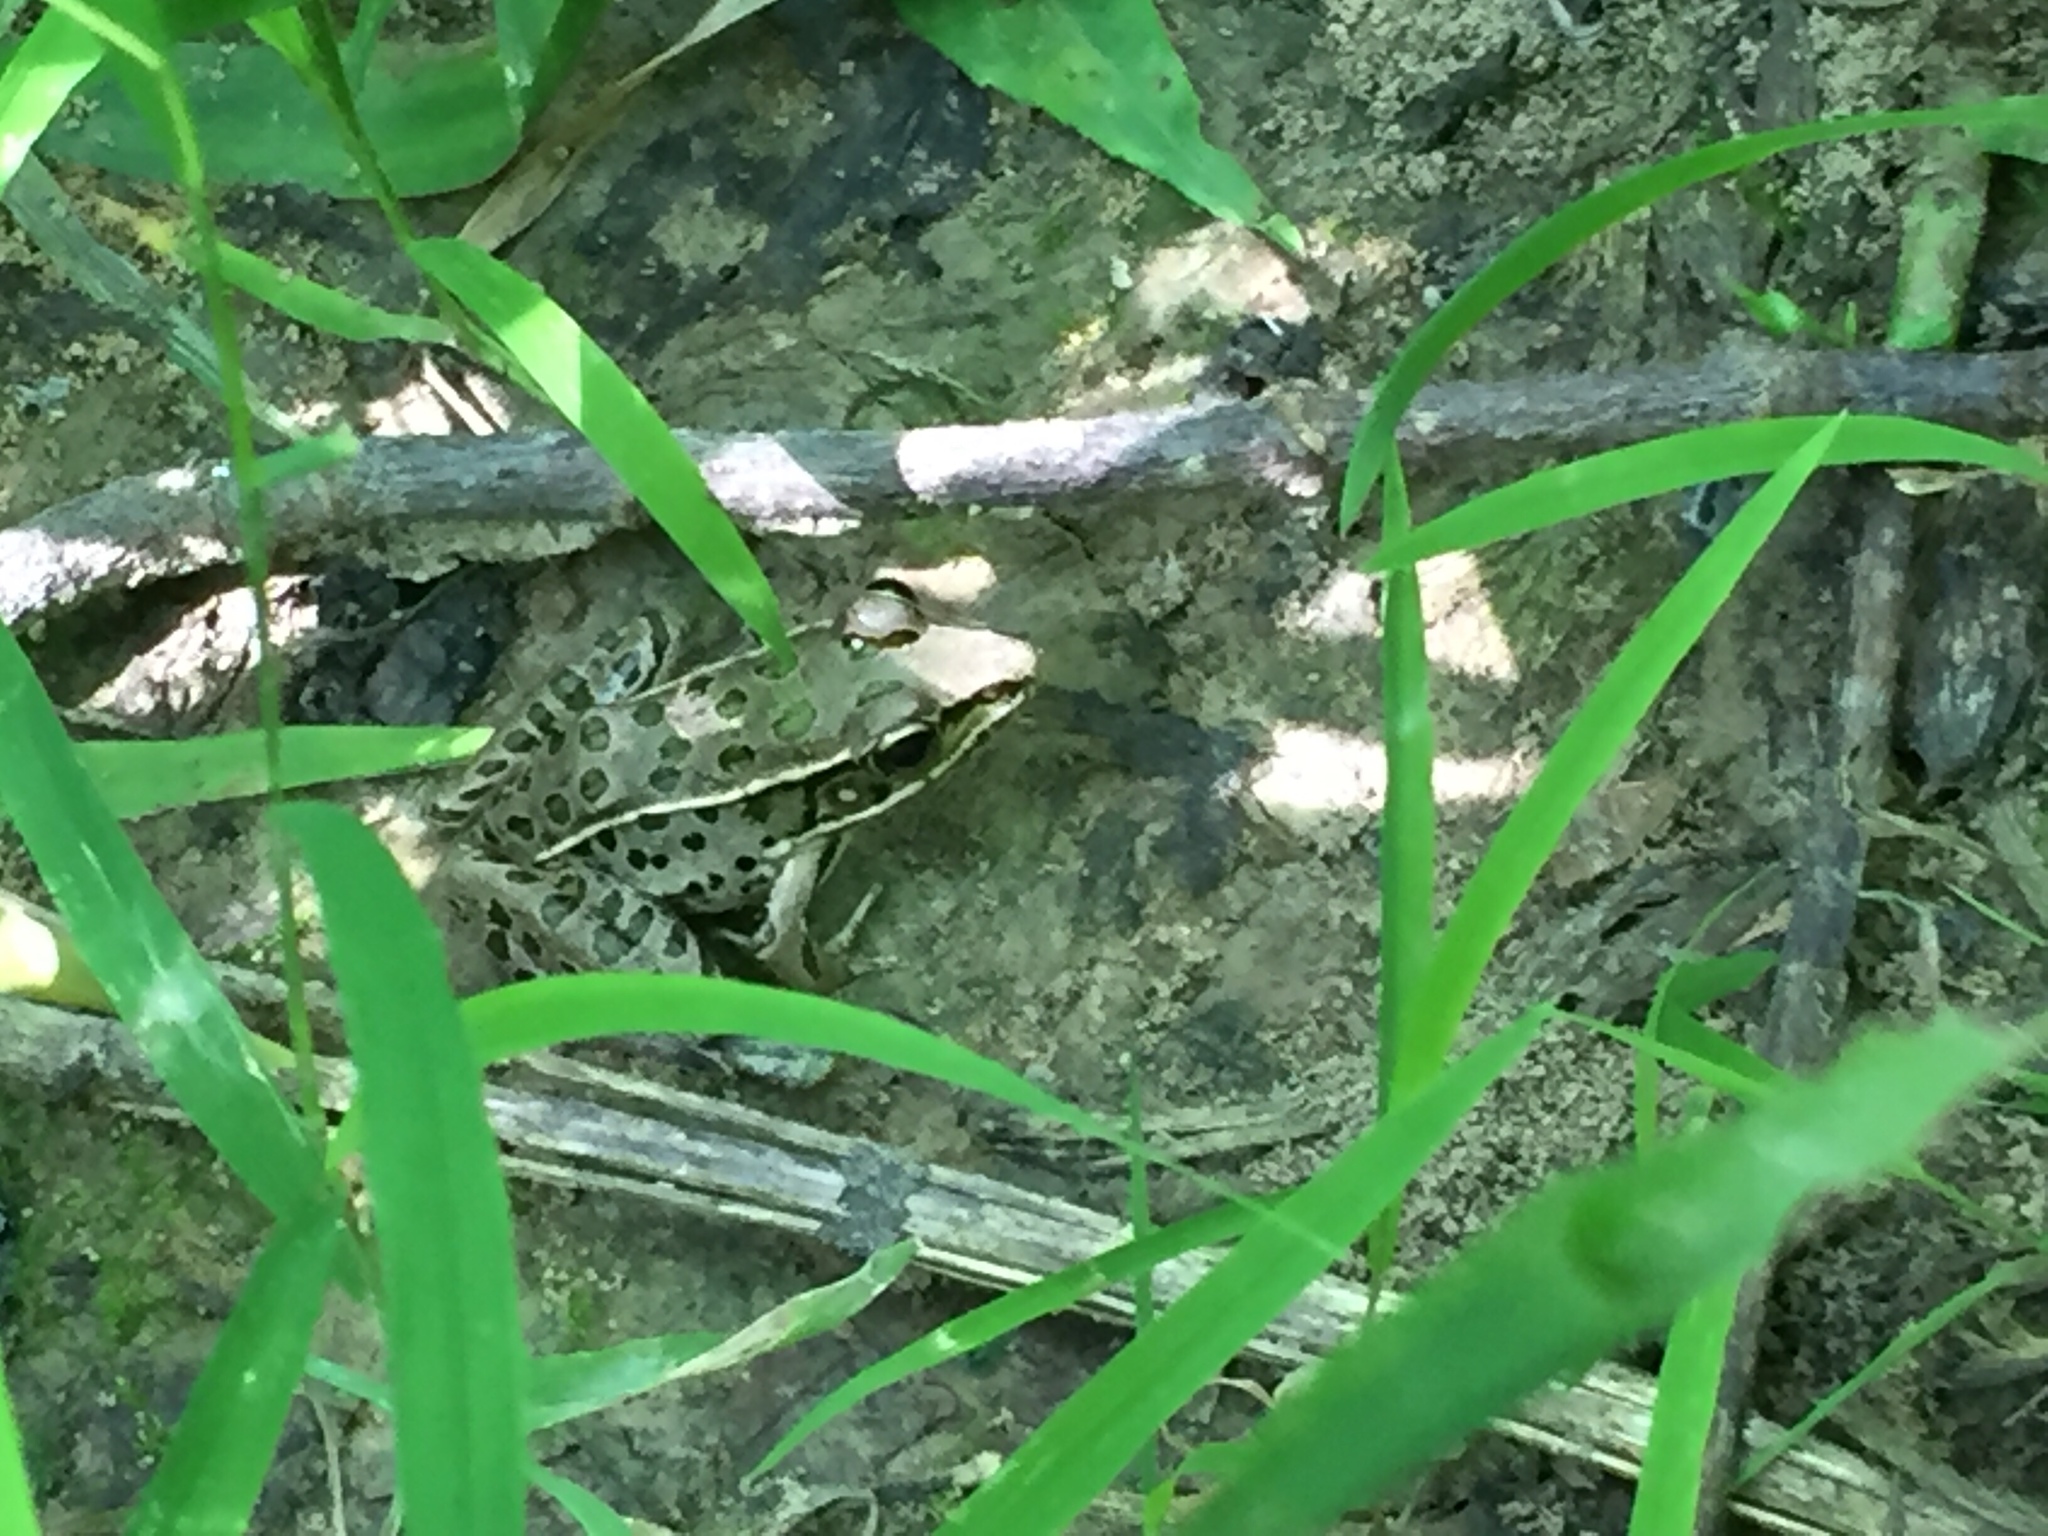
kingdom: Animalia
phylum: Chordata
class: Amphibia
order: Anura
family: Ranidae
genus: Lithobates
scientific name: Lithobates sphenocephalus
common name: Southern leopard frog
